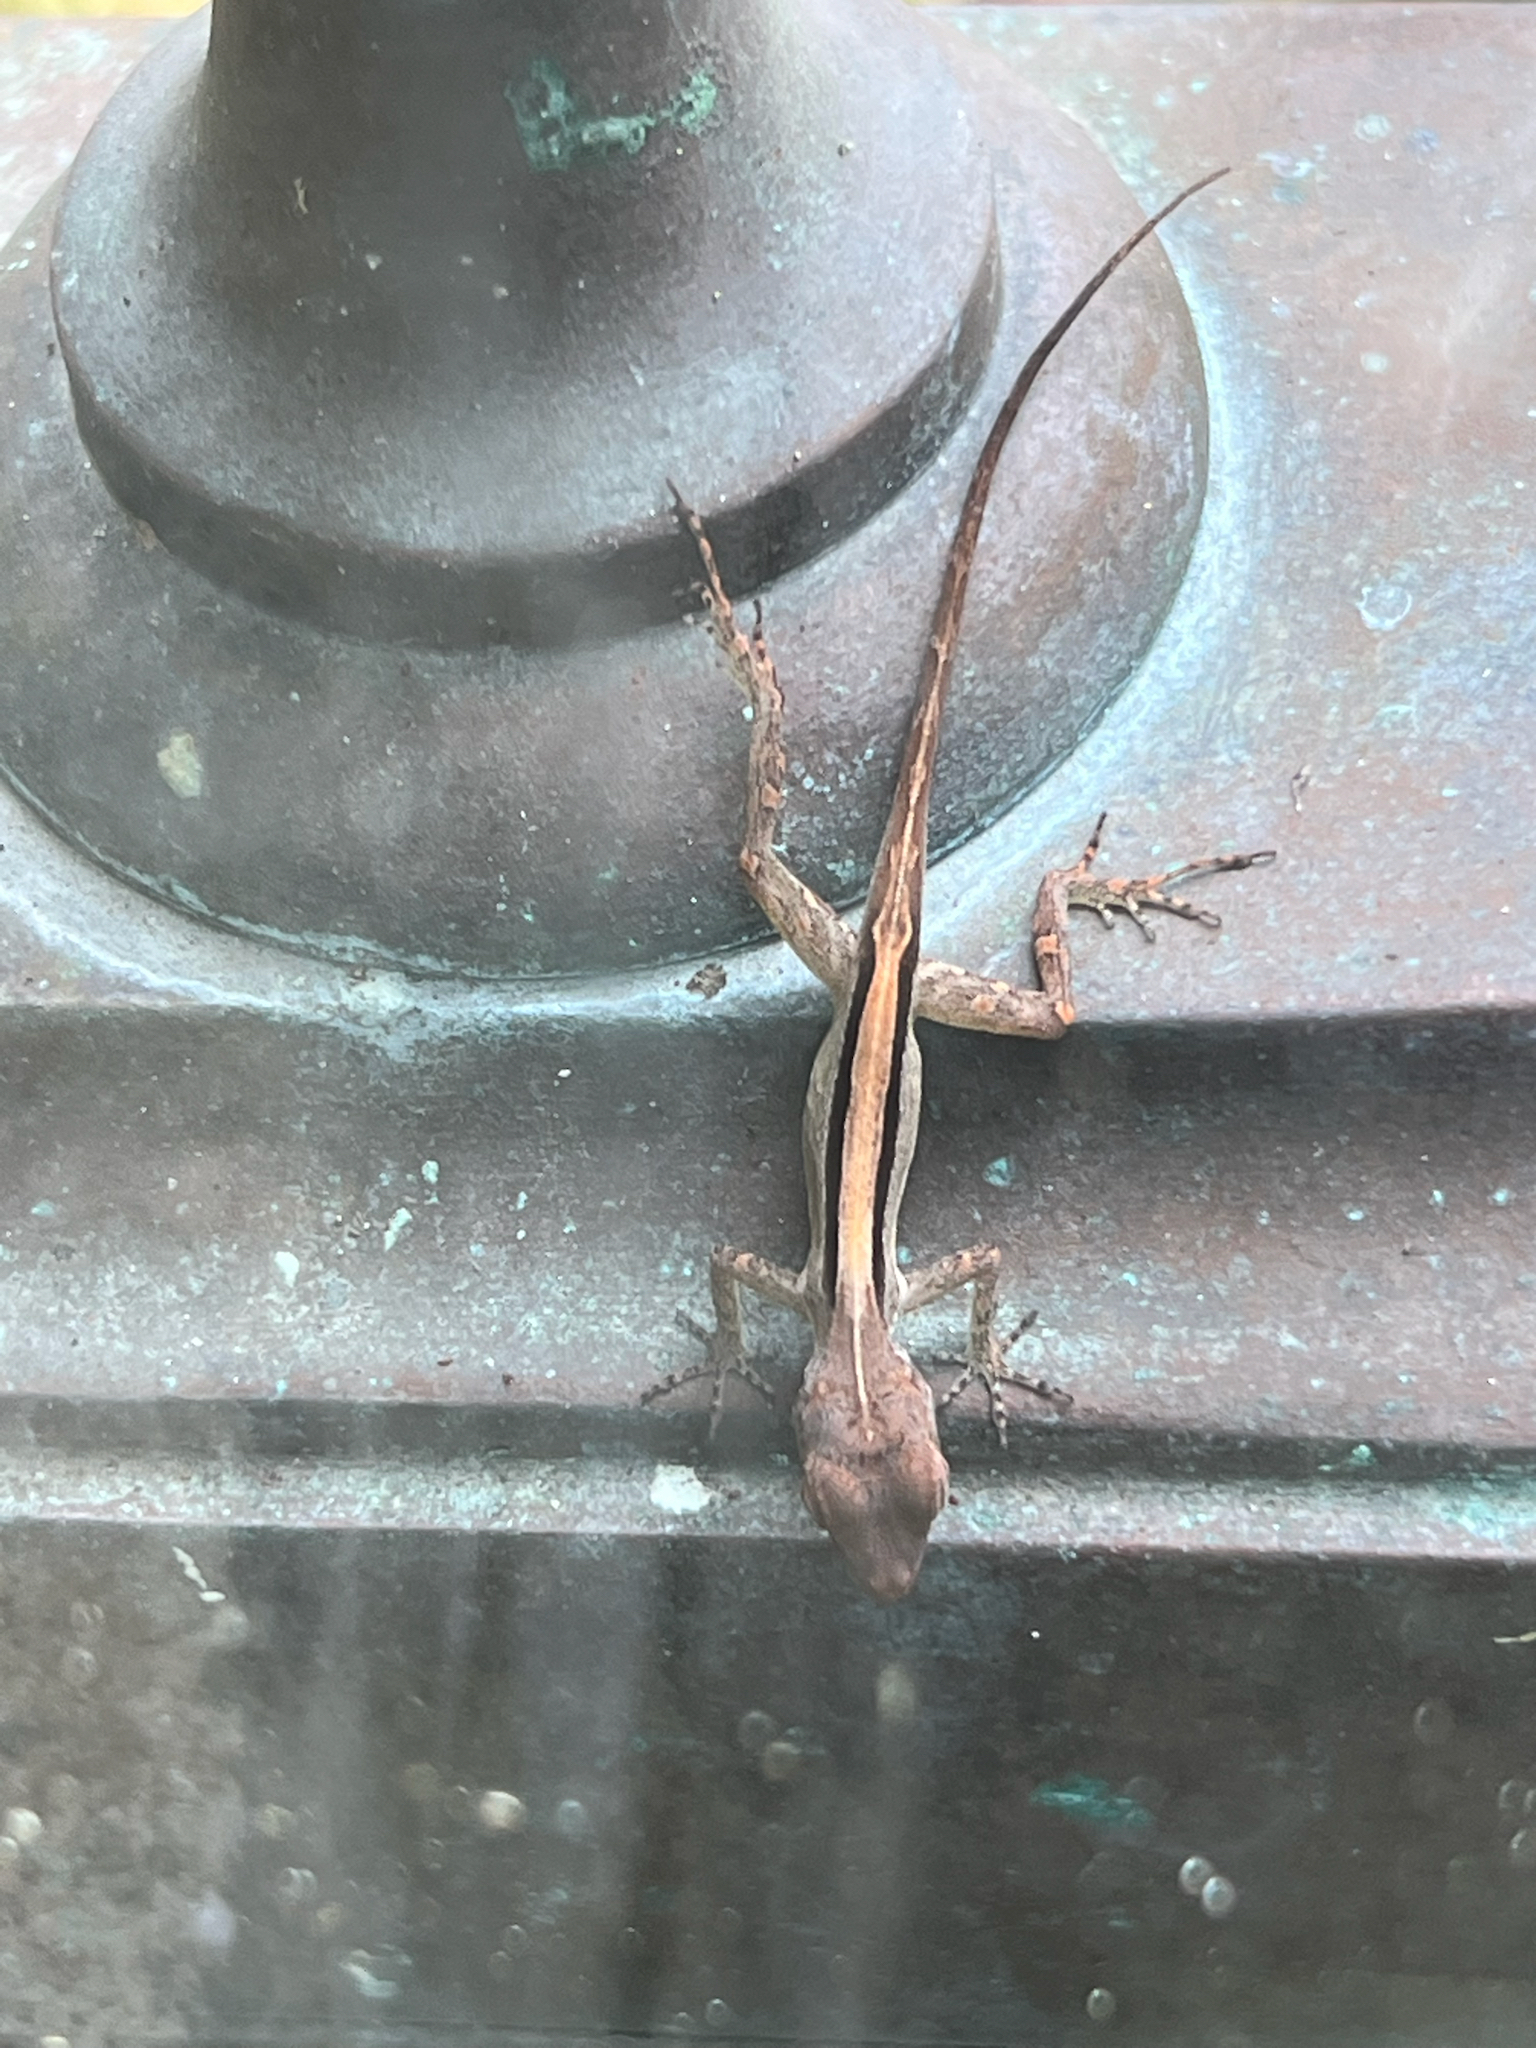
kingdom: Animalia
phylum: Chordata
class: Squamata
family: Dactyloidae
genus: Anolis
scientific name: Anolis cristatellus
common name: Crested anole
